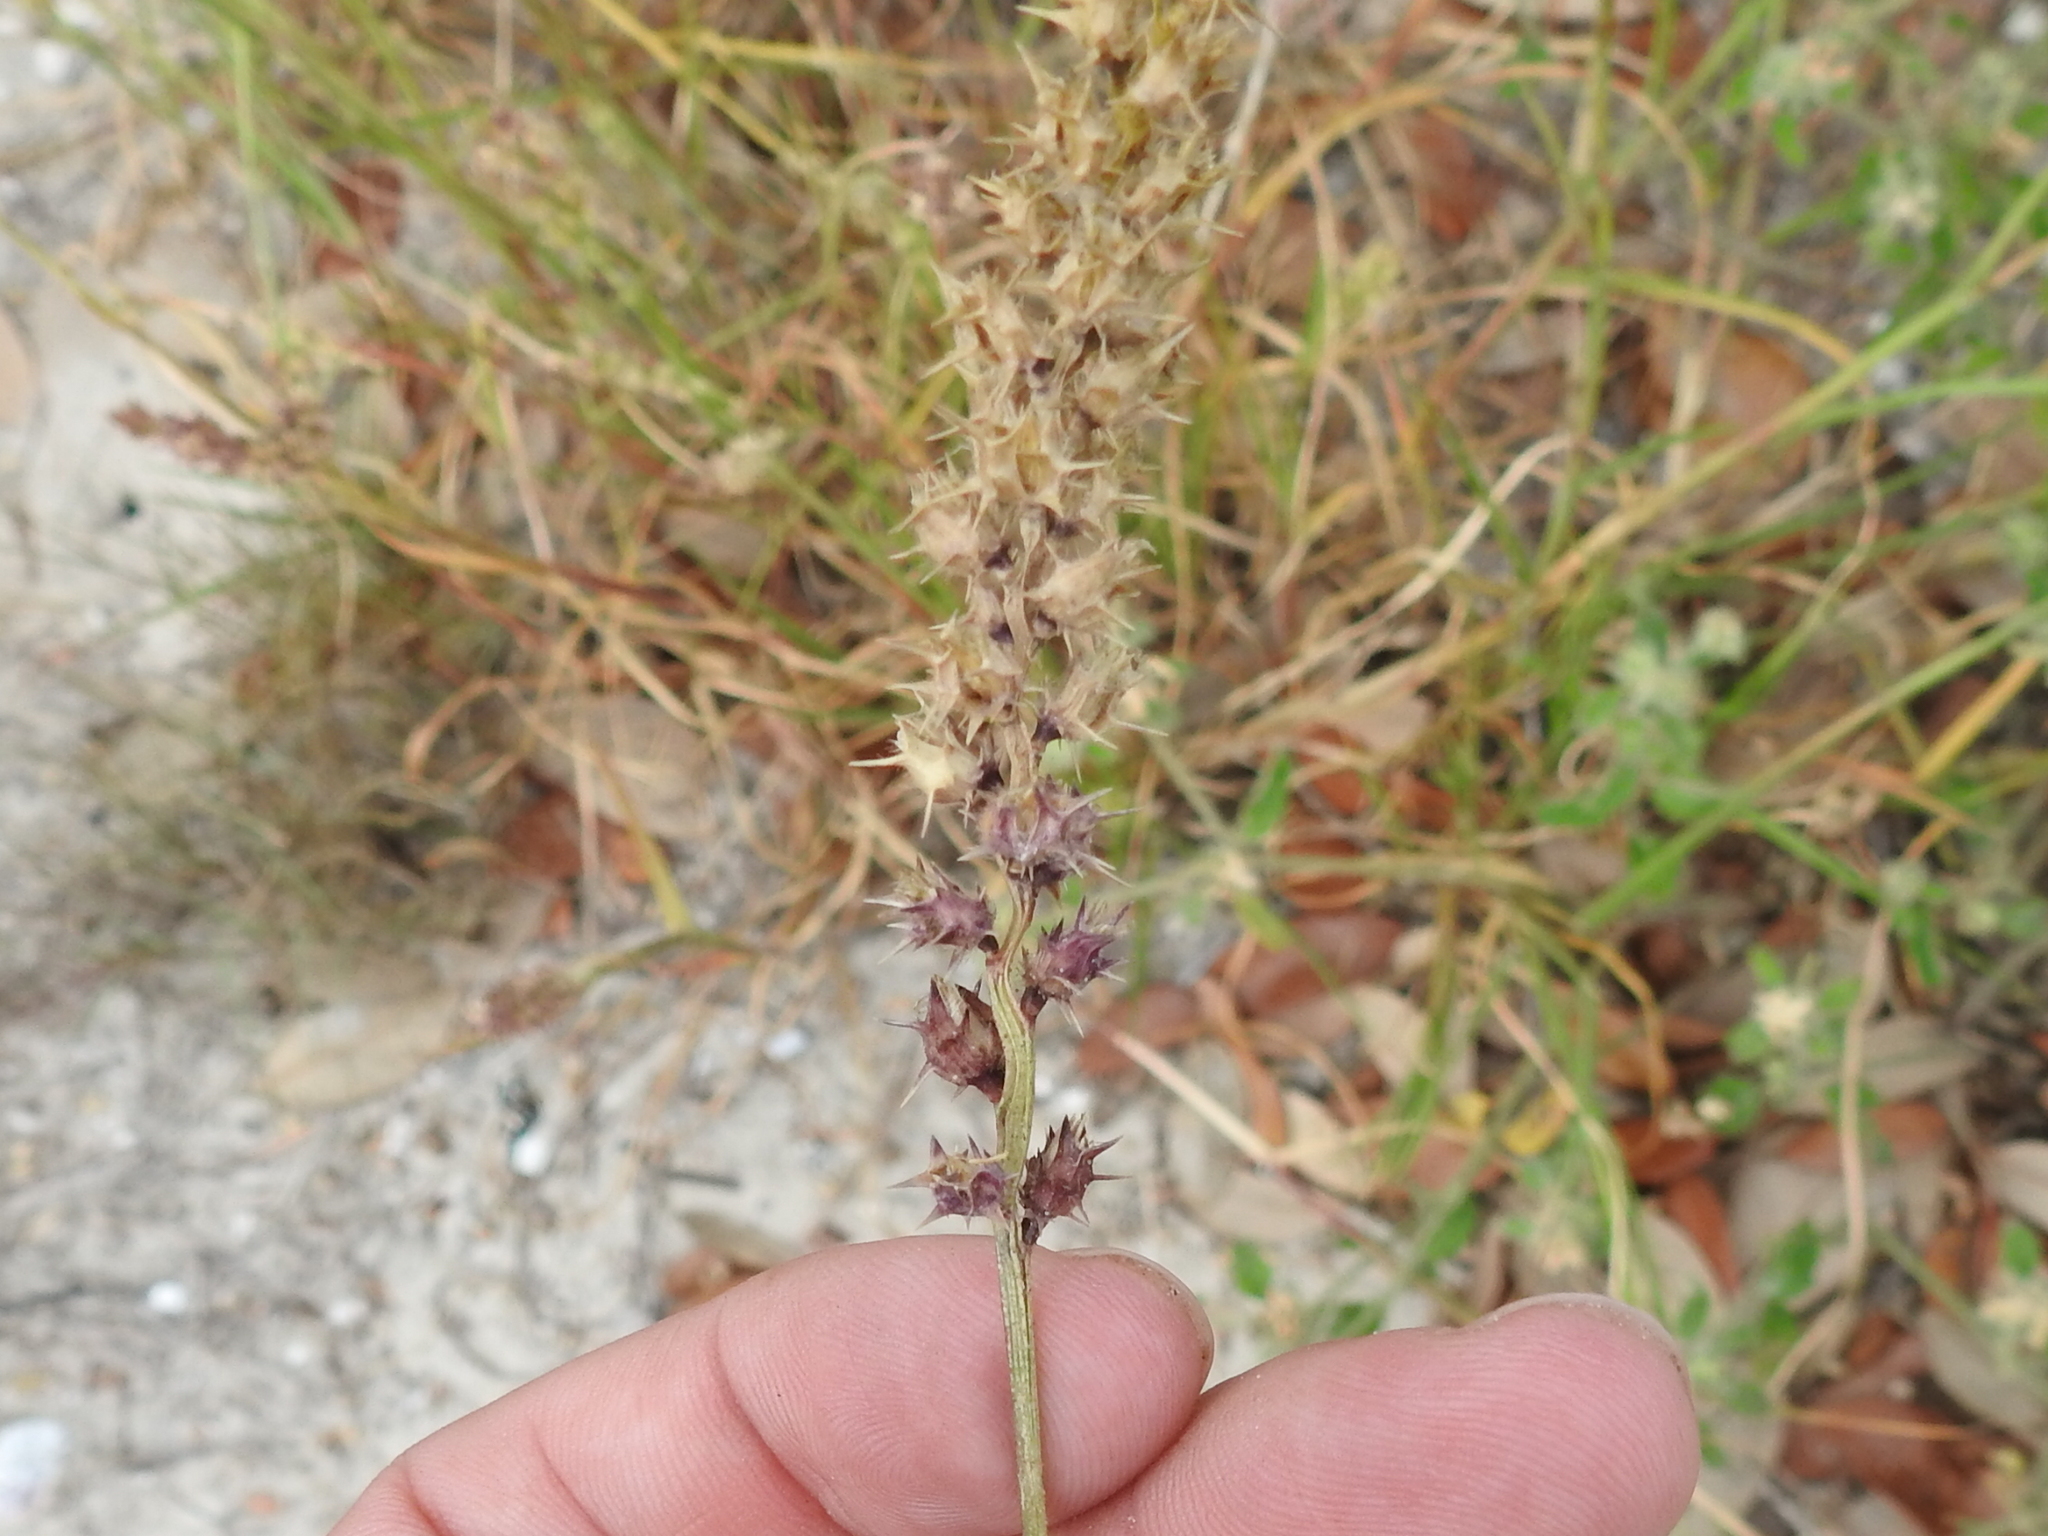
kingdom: Plantae
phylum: Tracheophyta
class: Liliopsida
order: Poales
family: Poaceae
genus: Cenchrus
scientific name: Cenchrus spinifex
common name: Coast sandbur
